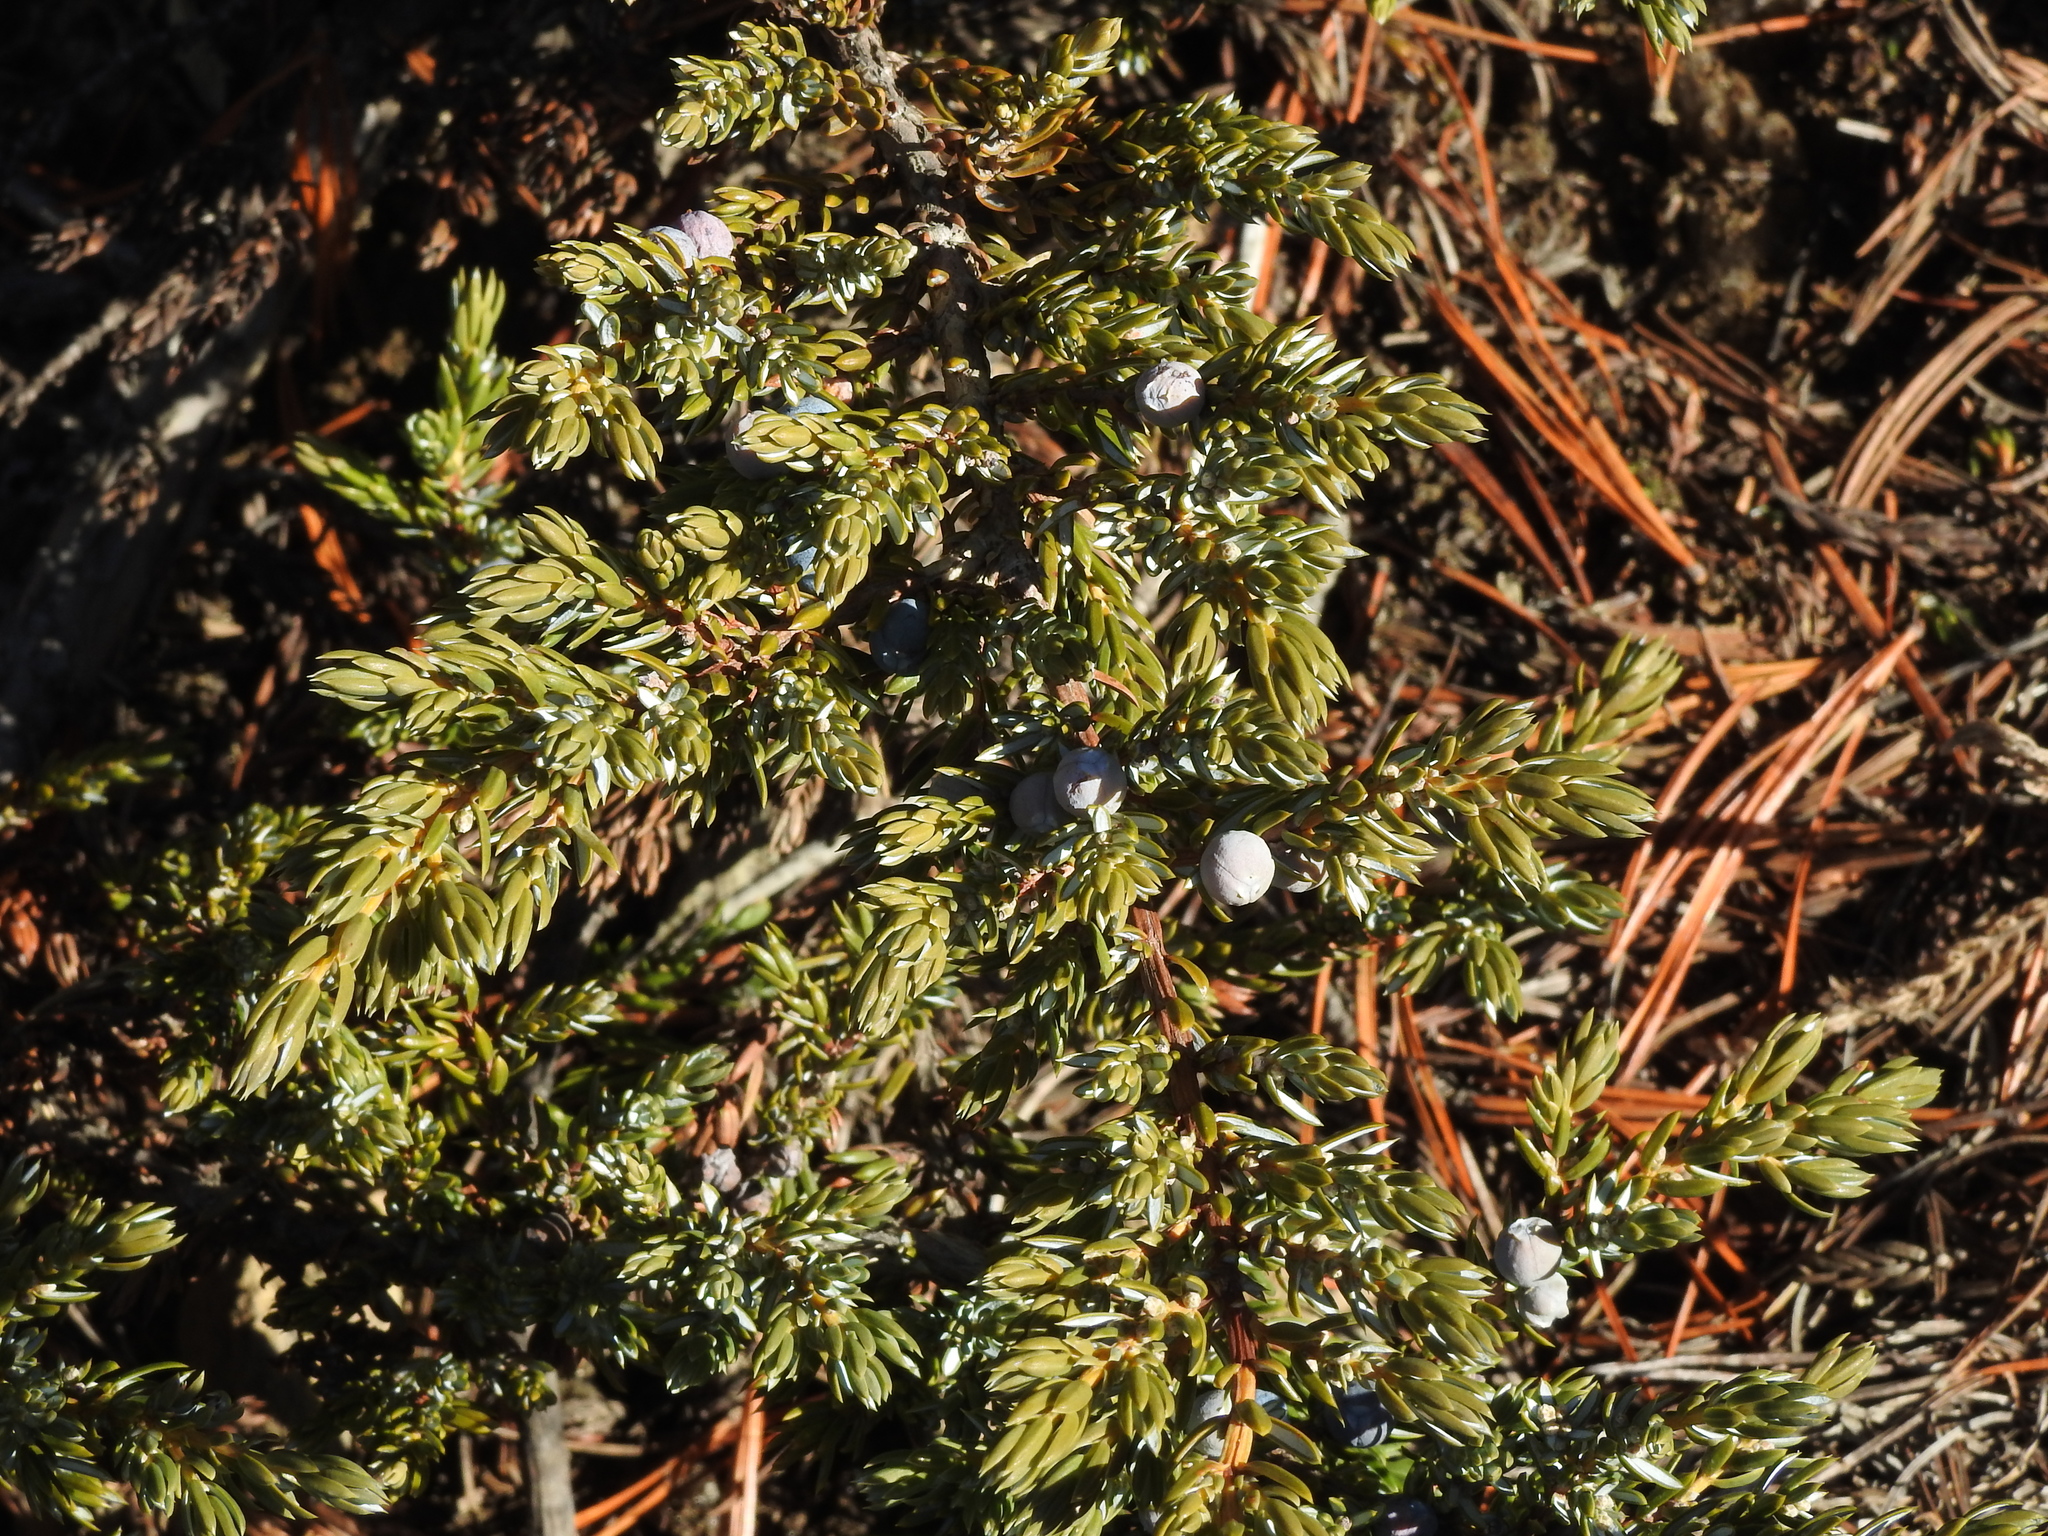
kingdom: Plantae
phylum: Tracheophyta
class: Pinopsida
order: Pinales
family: Cupressaceae
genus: Juniperus
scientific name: Juniperus communis
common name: Common juniper
